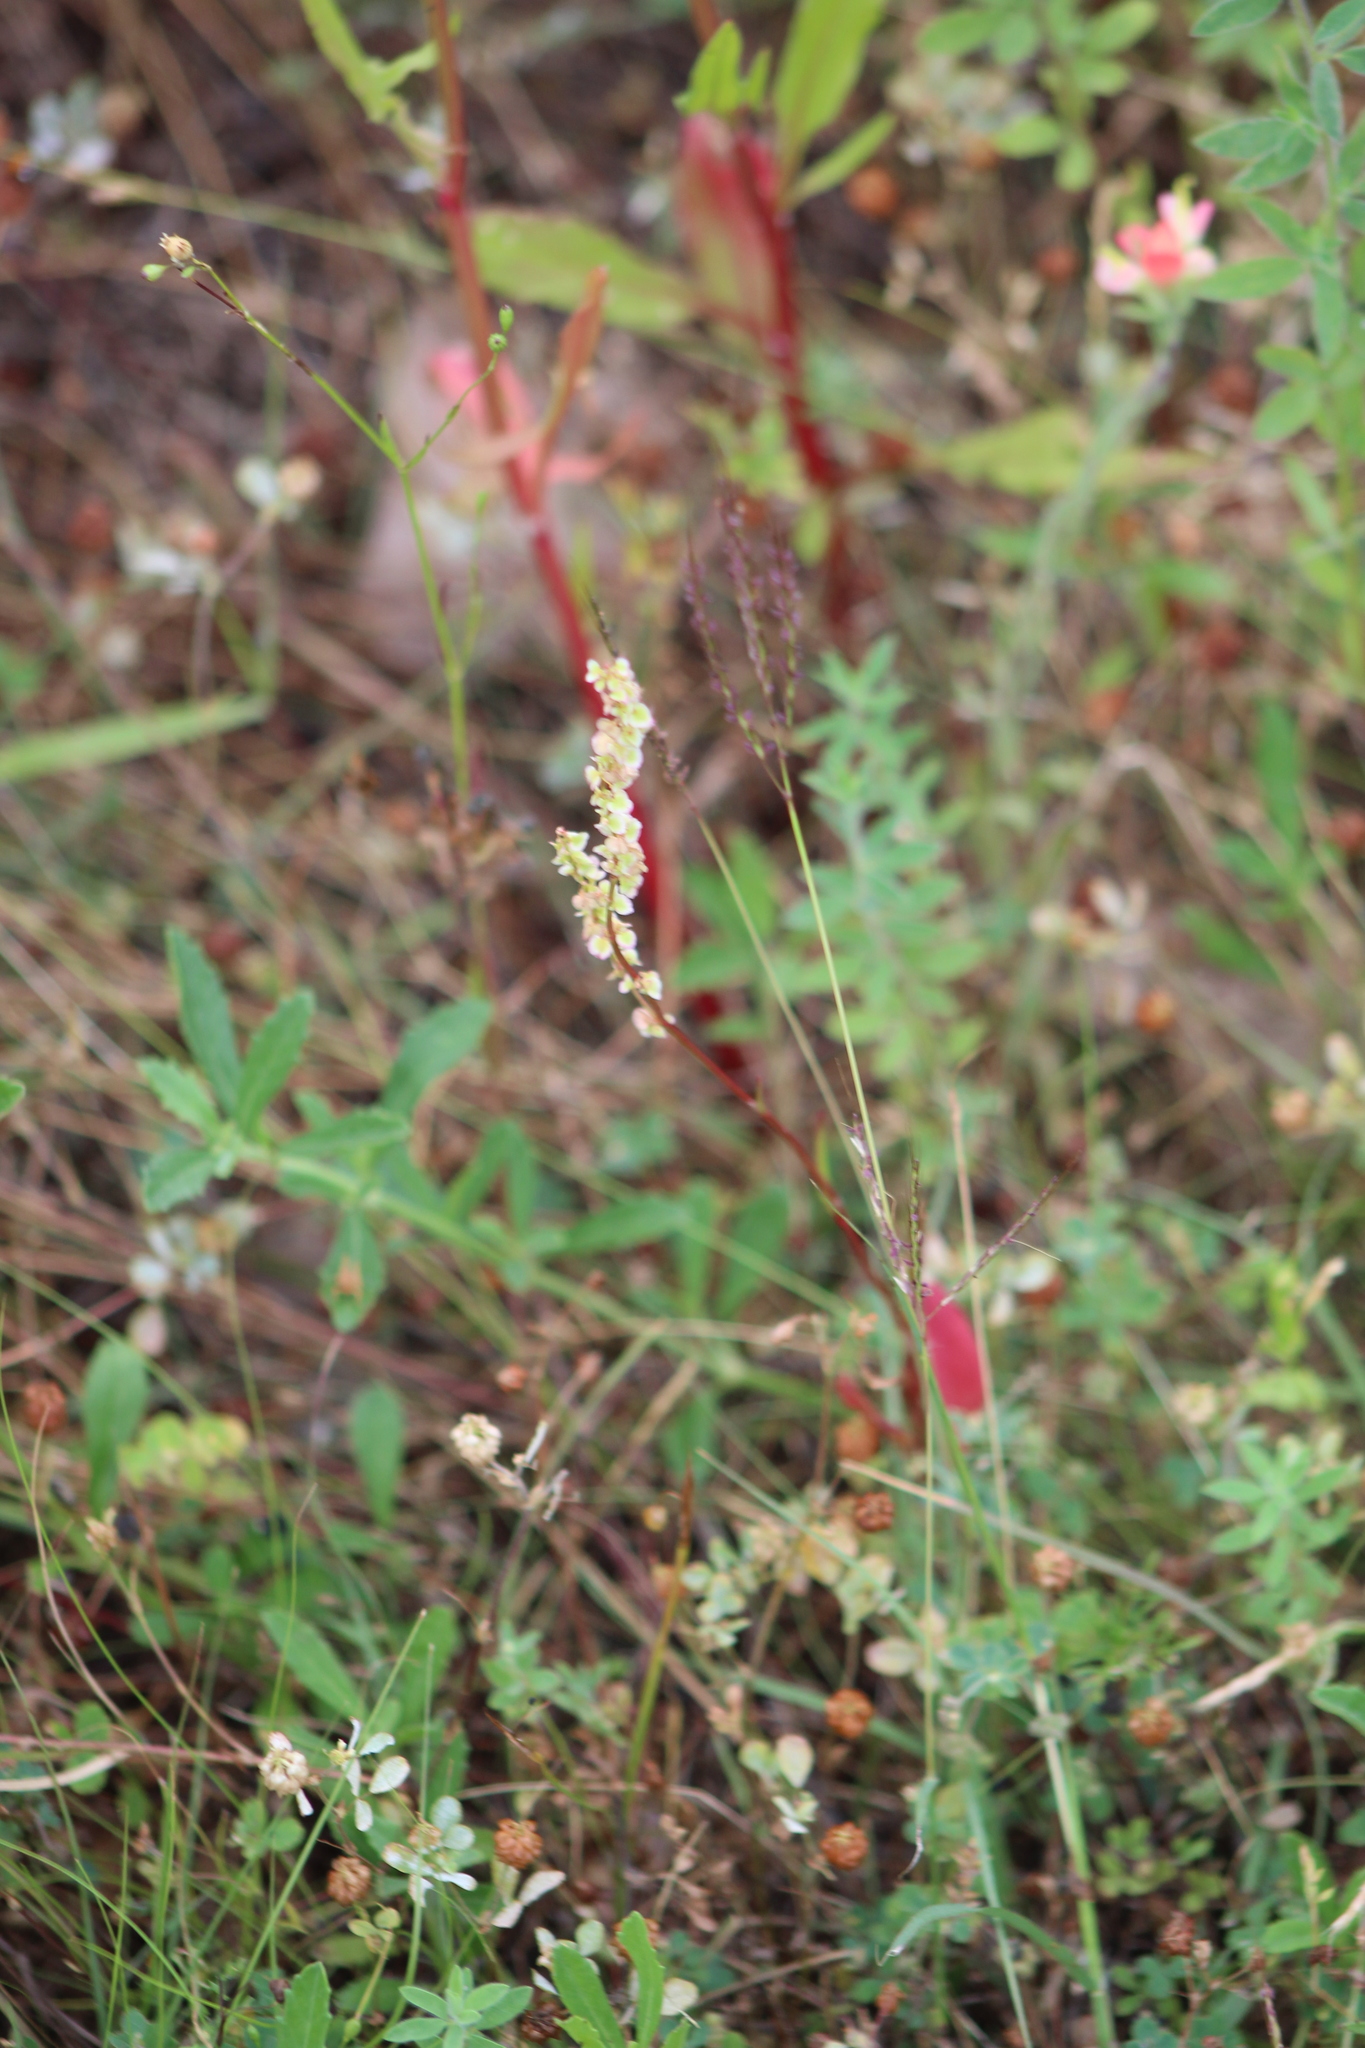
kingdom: Plantae
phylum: Tracheophyta
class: Magnoliopsida
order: Caryophyllales
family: Polygonaceae
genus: Rumex
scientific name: Rumex hastatulus
